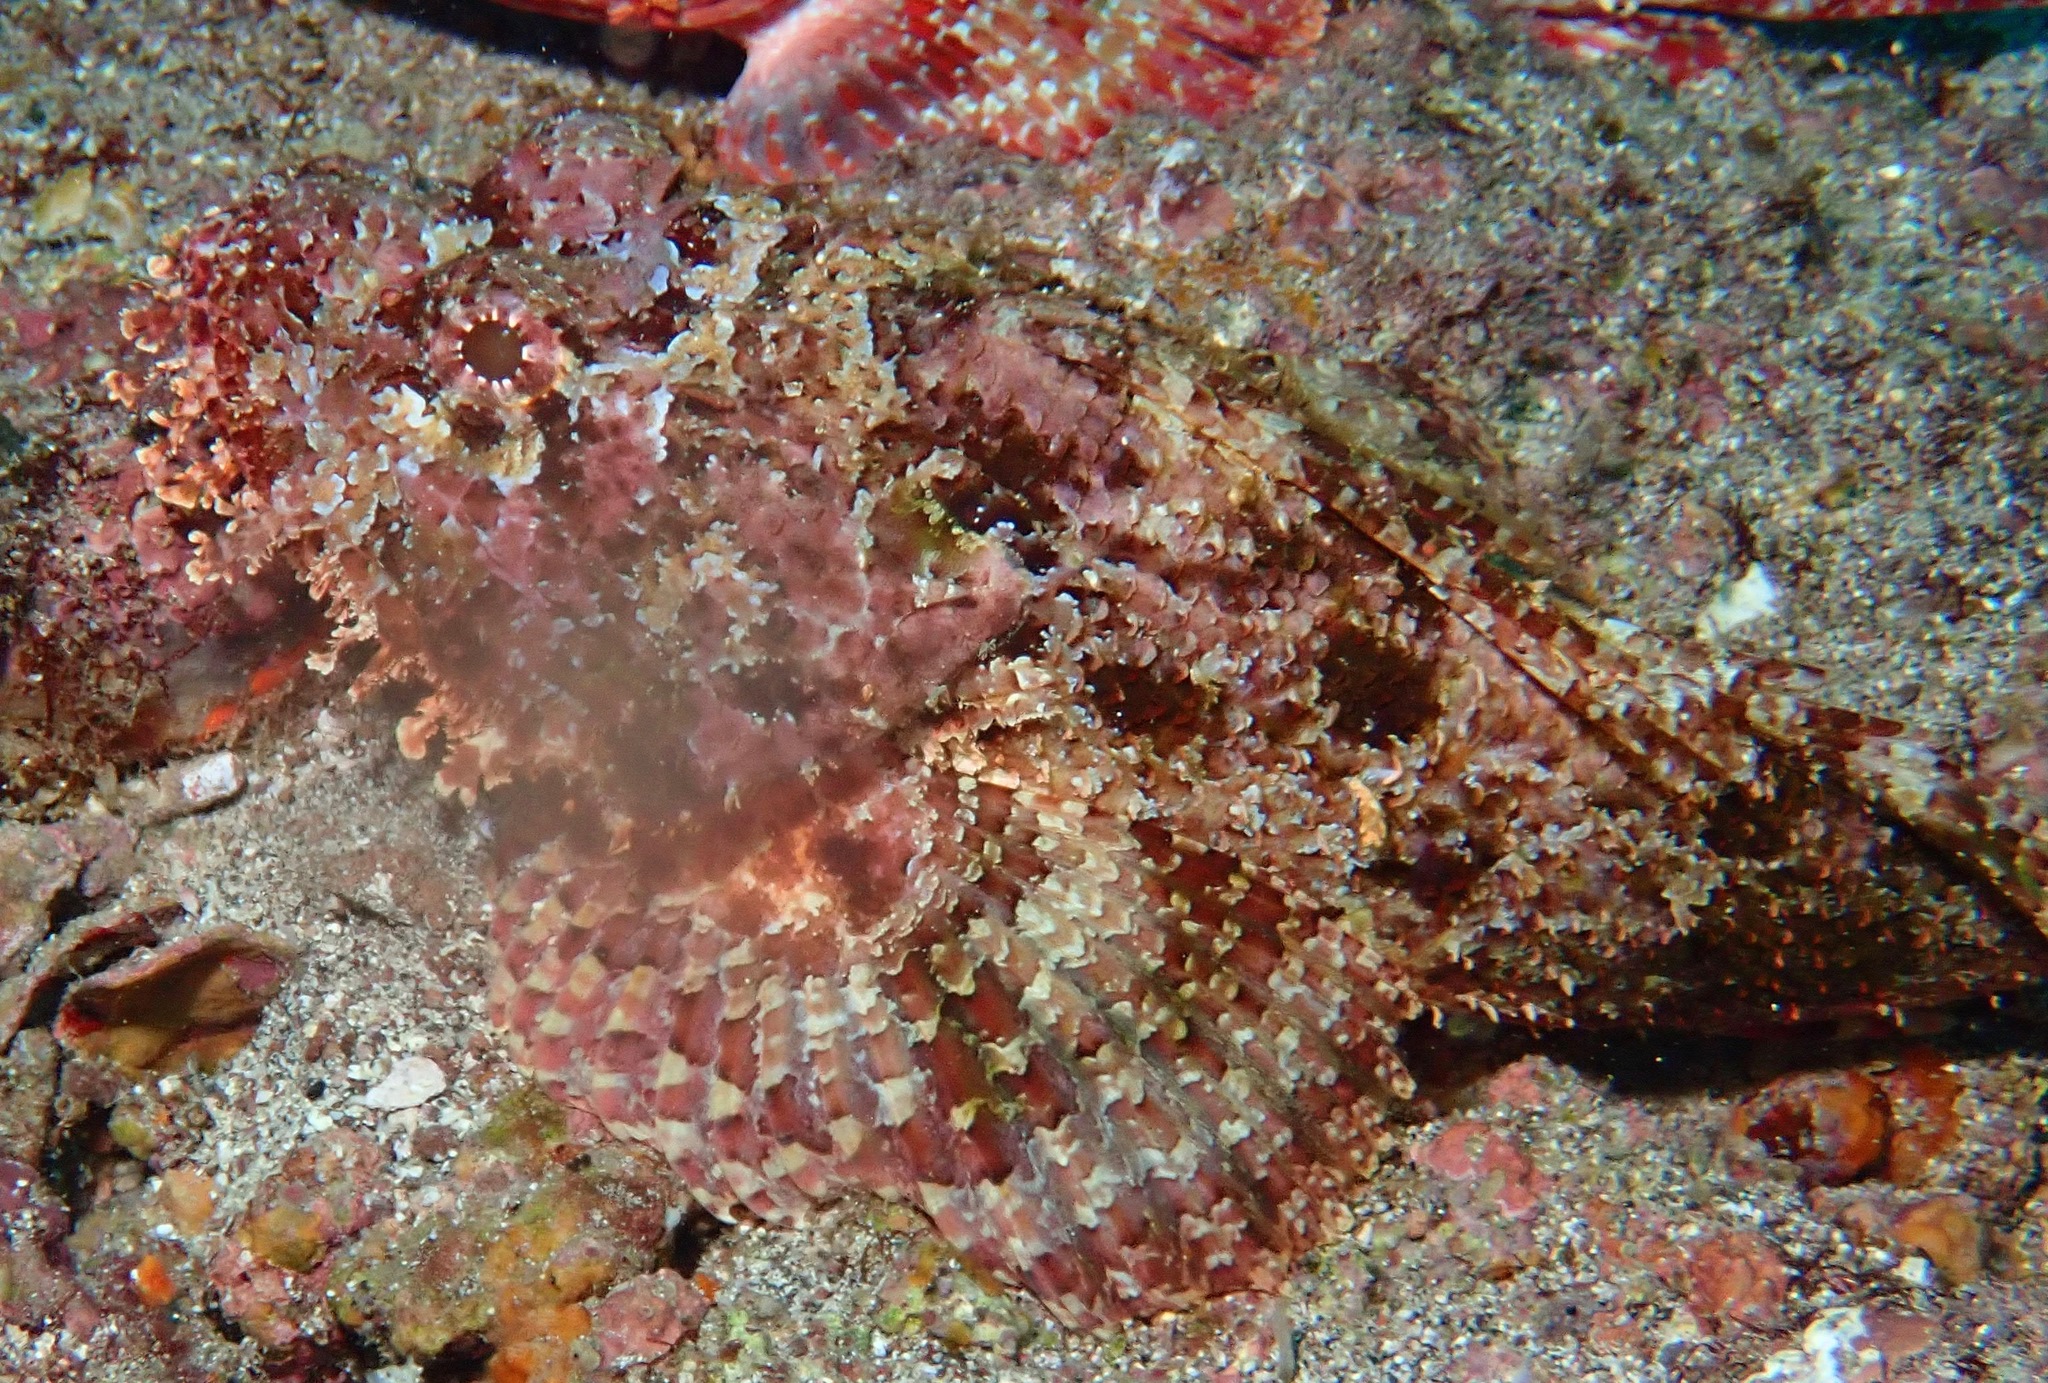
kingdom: Animalia
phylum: Chordata
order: Scorpaeniformes
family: Scorpaenidae
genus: Scorpaena
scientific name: Scorpaena mystes
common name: Pacific spotted scorpionfish
